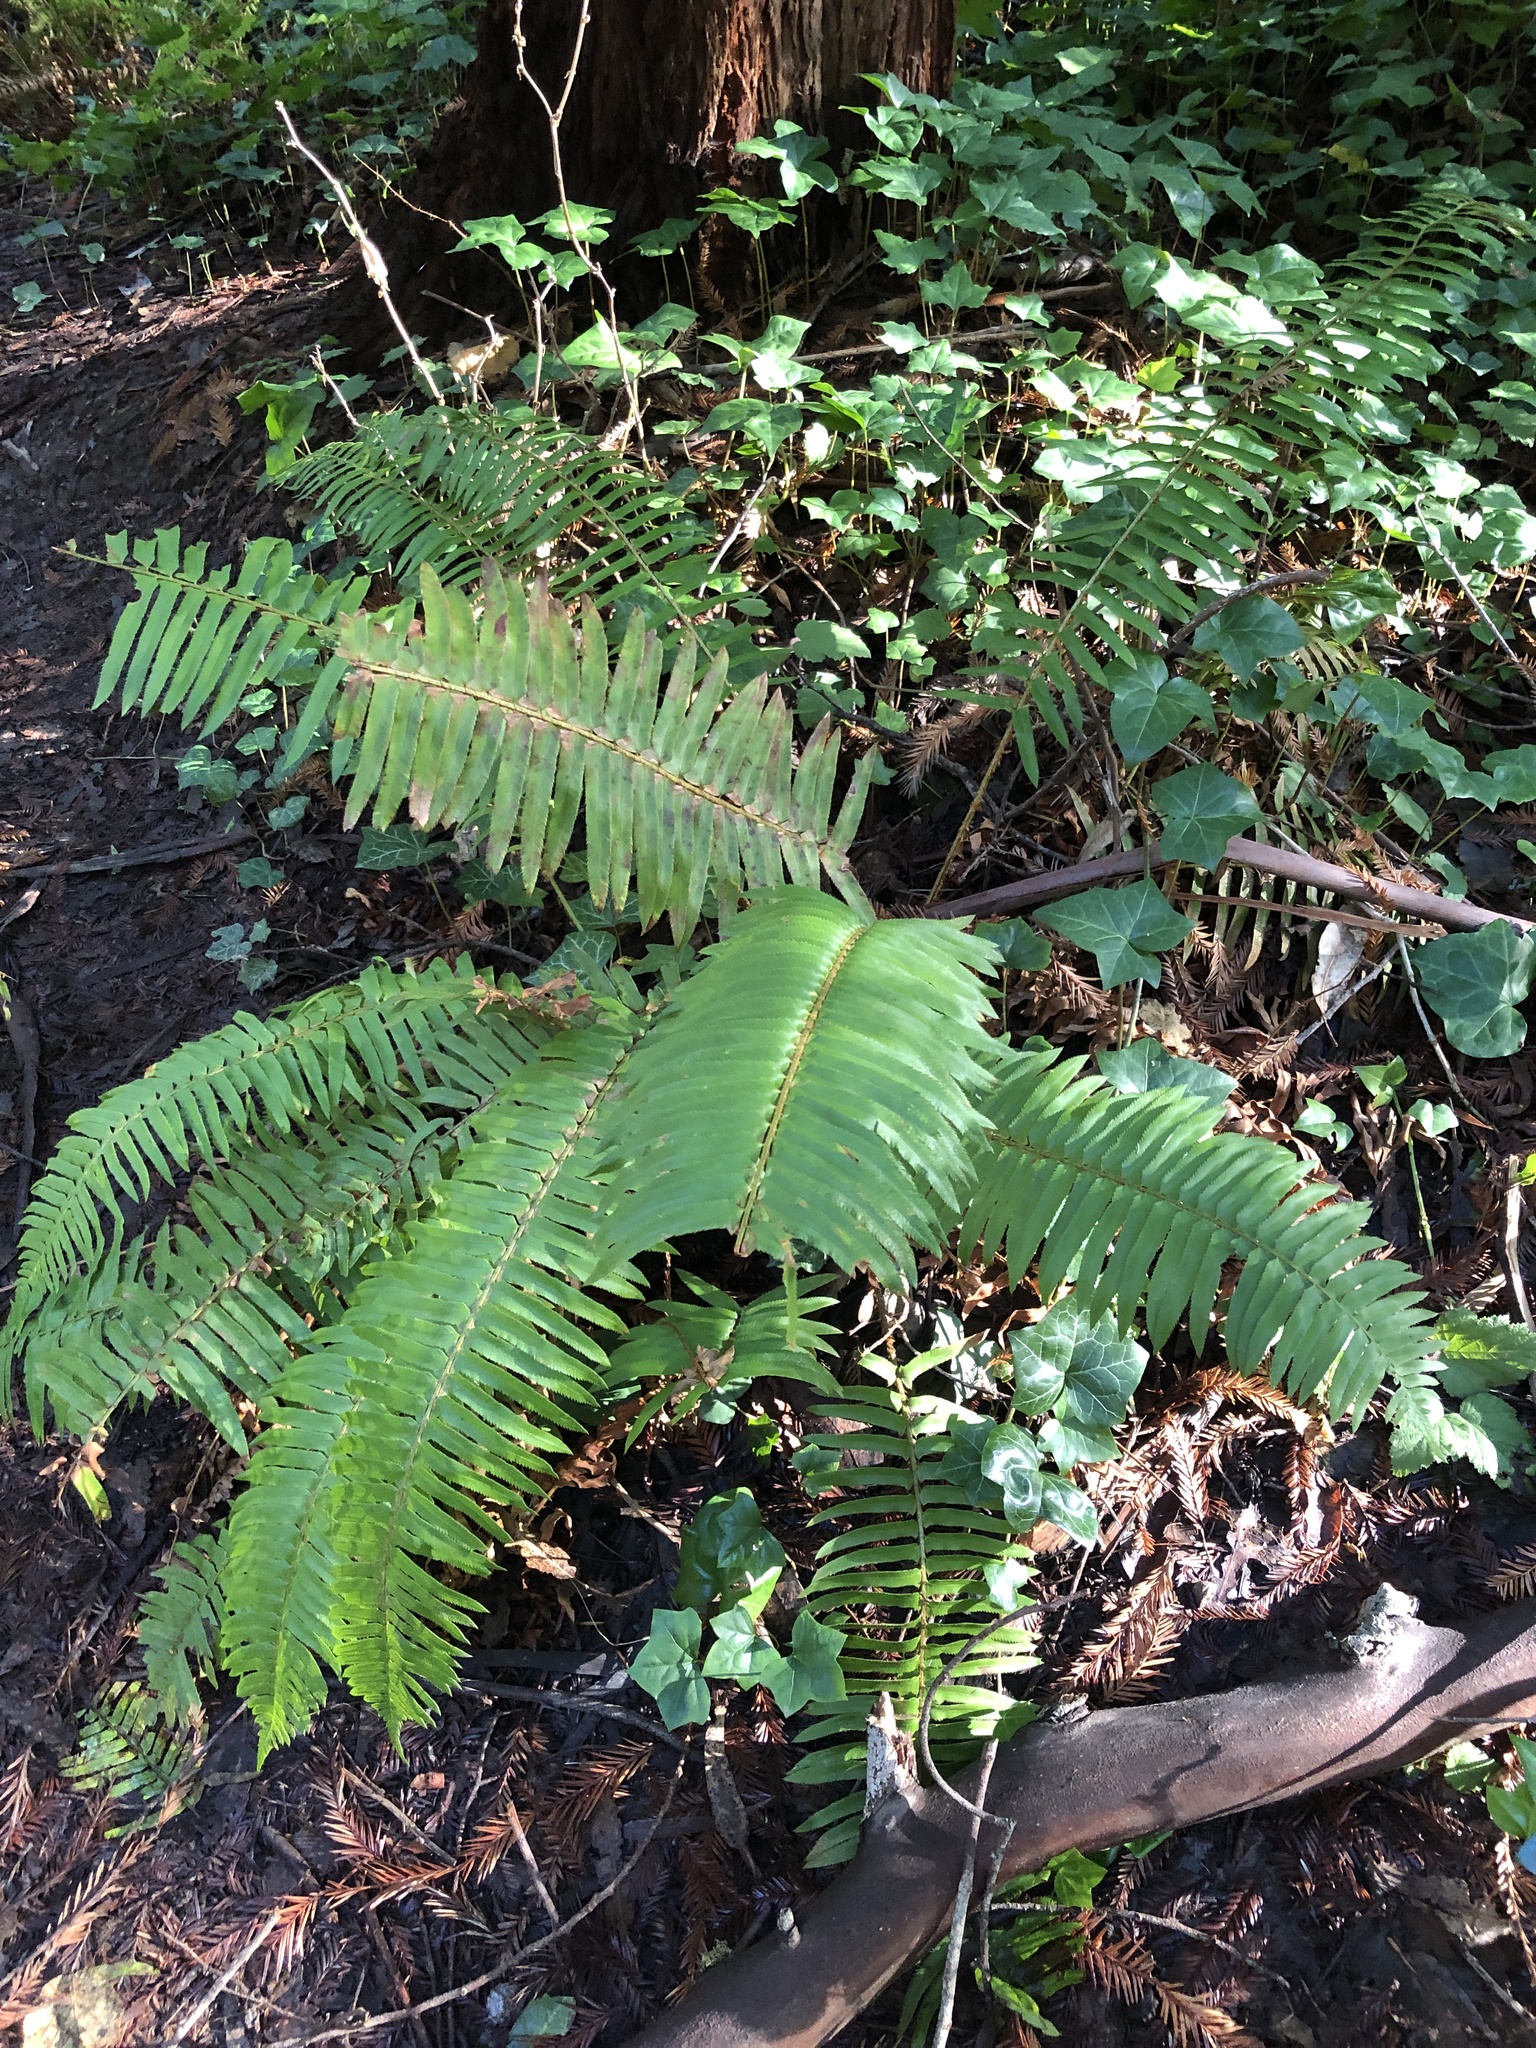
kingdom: Plantae
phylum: Tracheophyta
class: Polypodiopsida
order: Polypodiales
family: Dryopteridaceae
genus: Polystichum
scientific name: Polystichum munitum
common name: Western sword-fern
